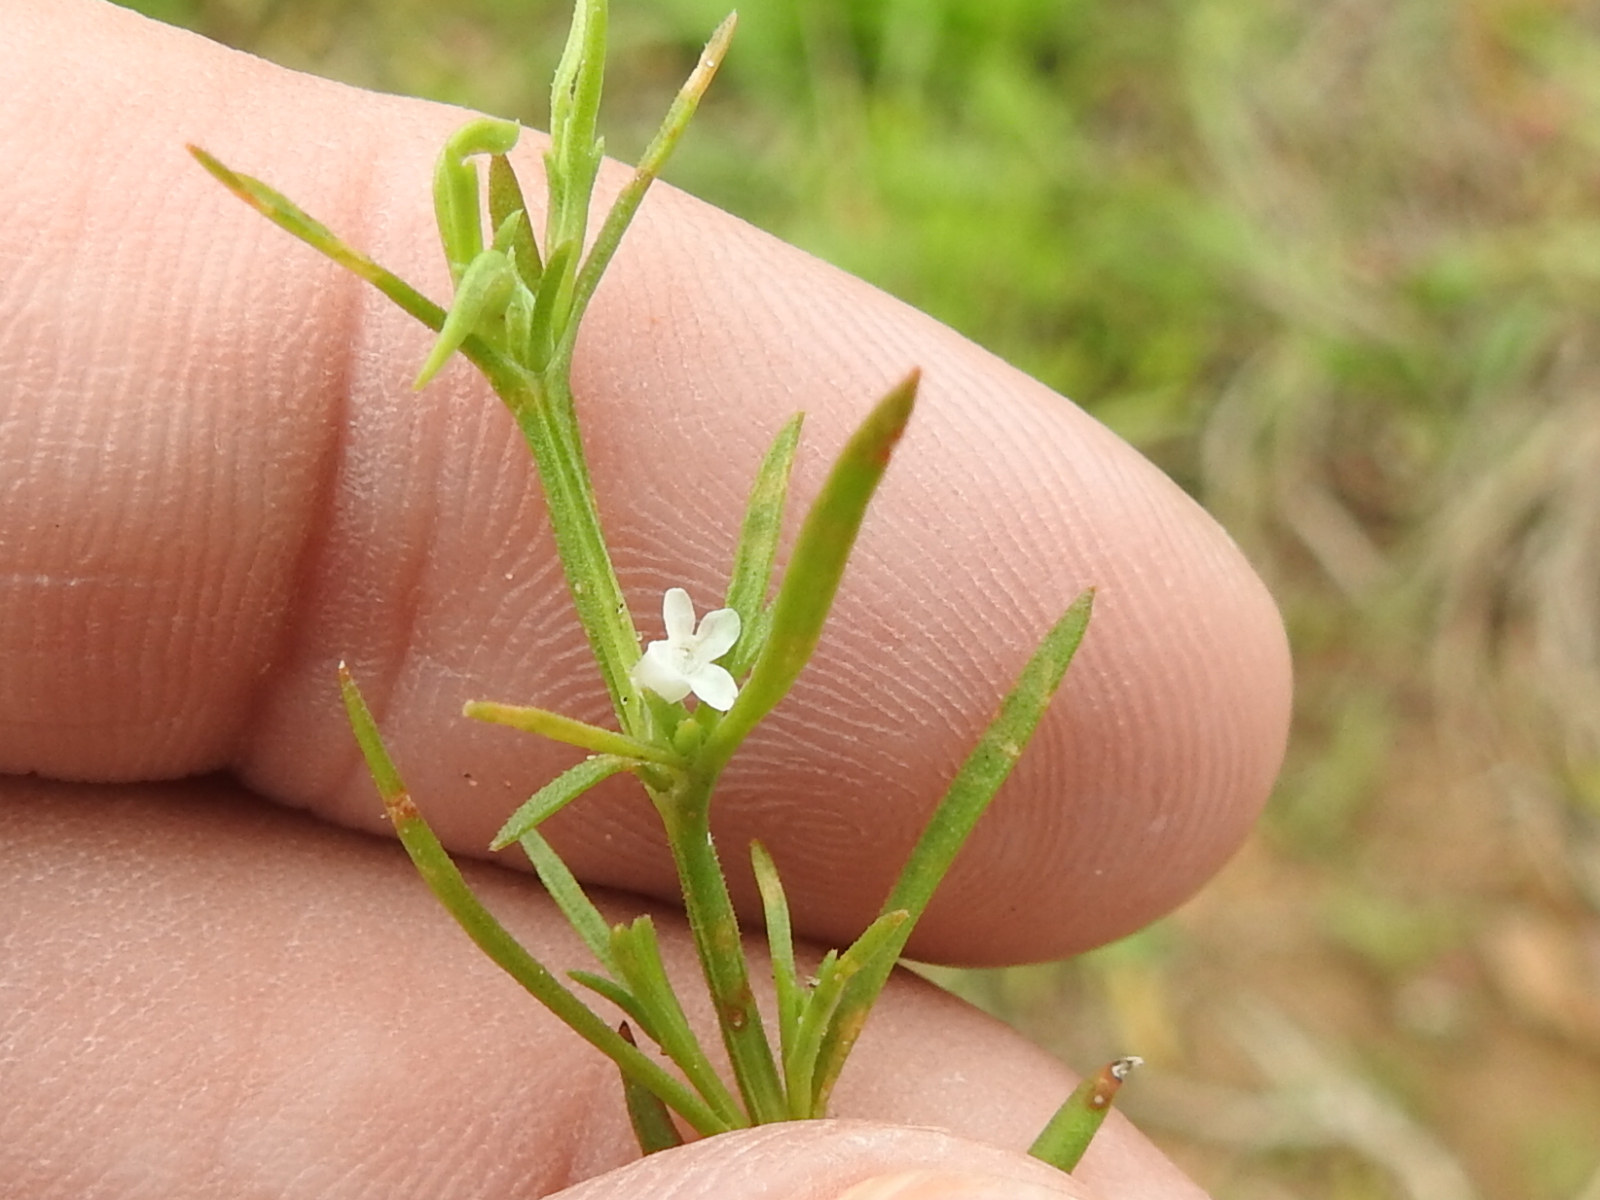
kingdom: Plantae
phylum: Tracheophyta
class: Magnoliopsida
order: Lamiales
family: Tetrachondraceae
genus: Polypremum
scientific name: Polypremum procumbens
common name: Juniper-leaf
